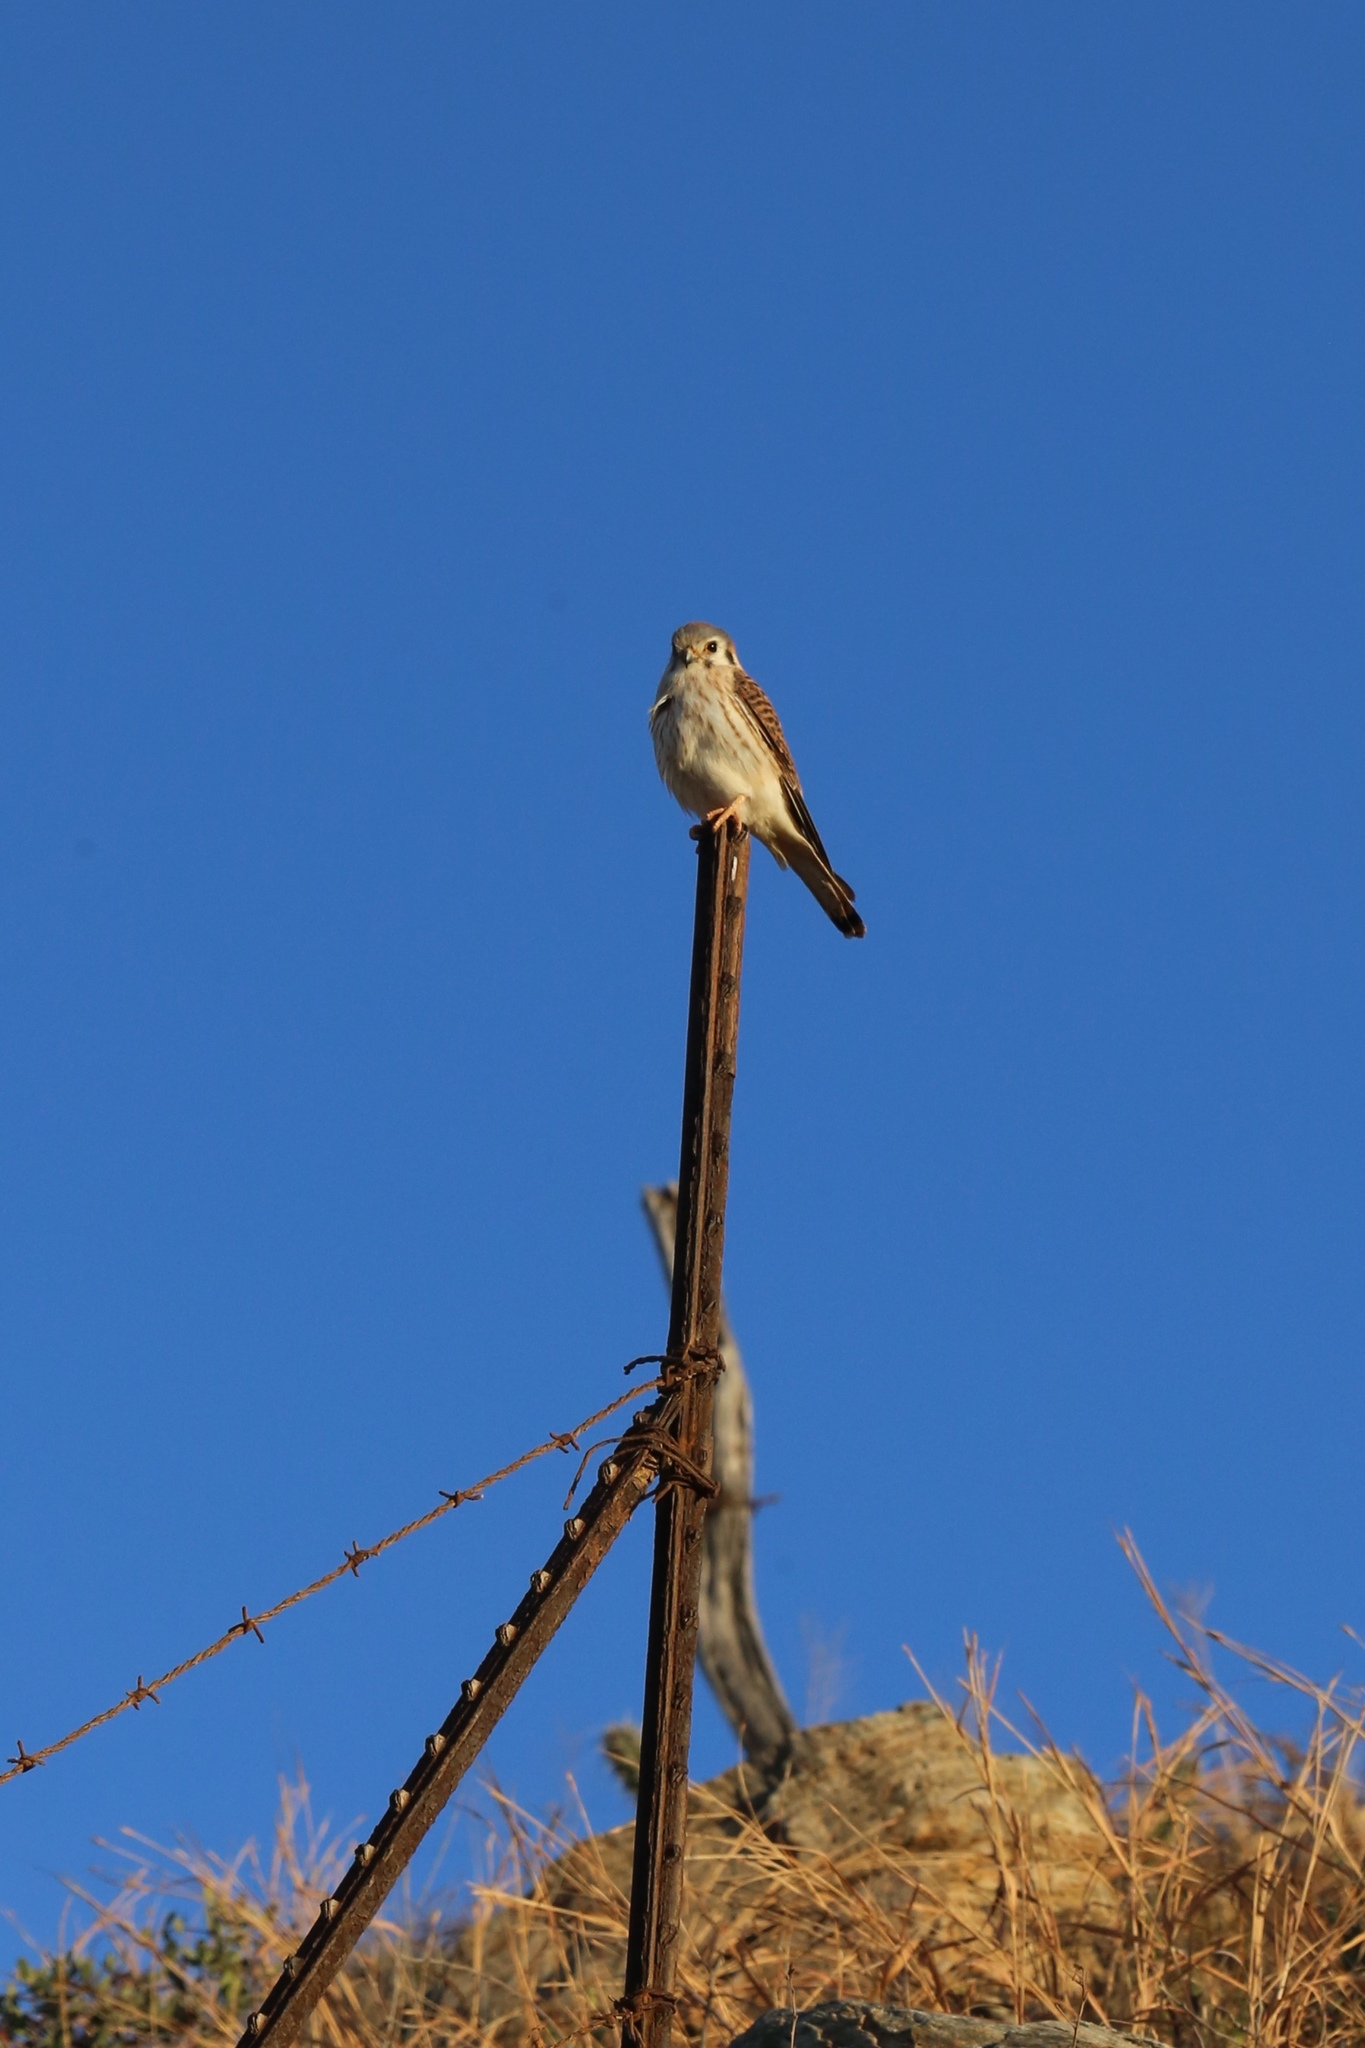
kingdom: Animalia
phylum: Chordata
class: Aves
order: Falconiformes
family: Falconidae
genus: Falco
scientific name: Falco sparverius
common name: American kestrel
